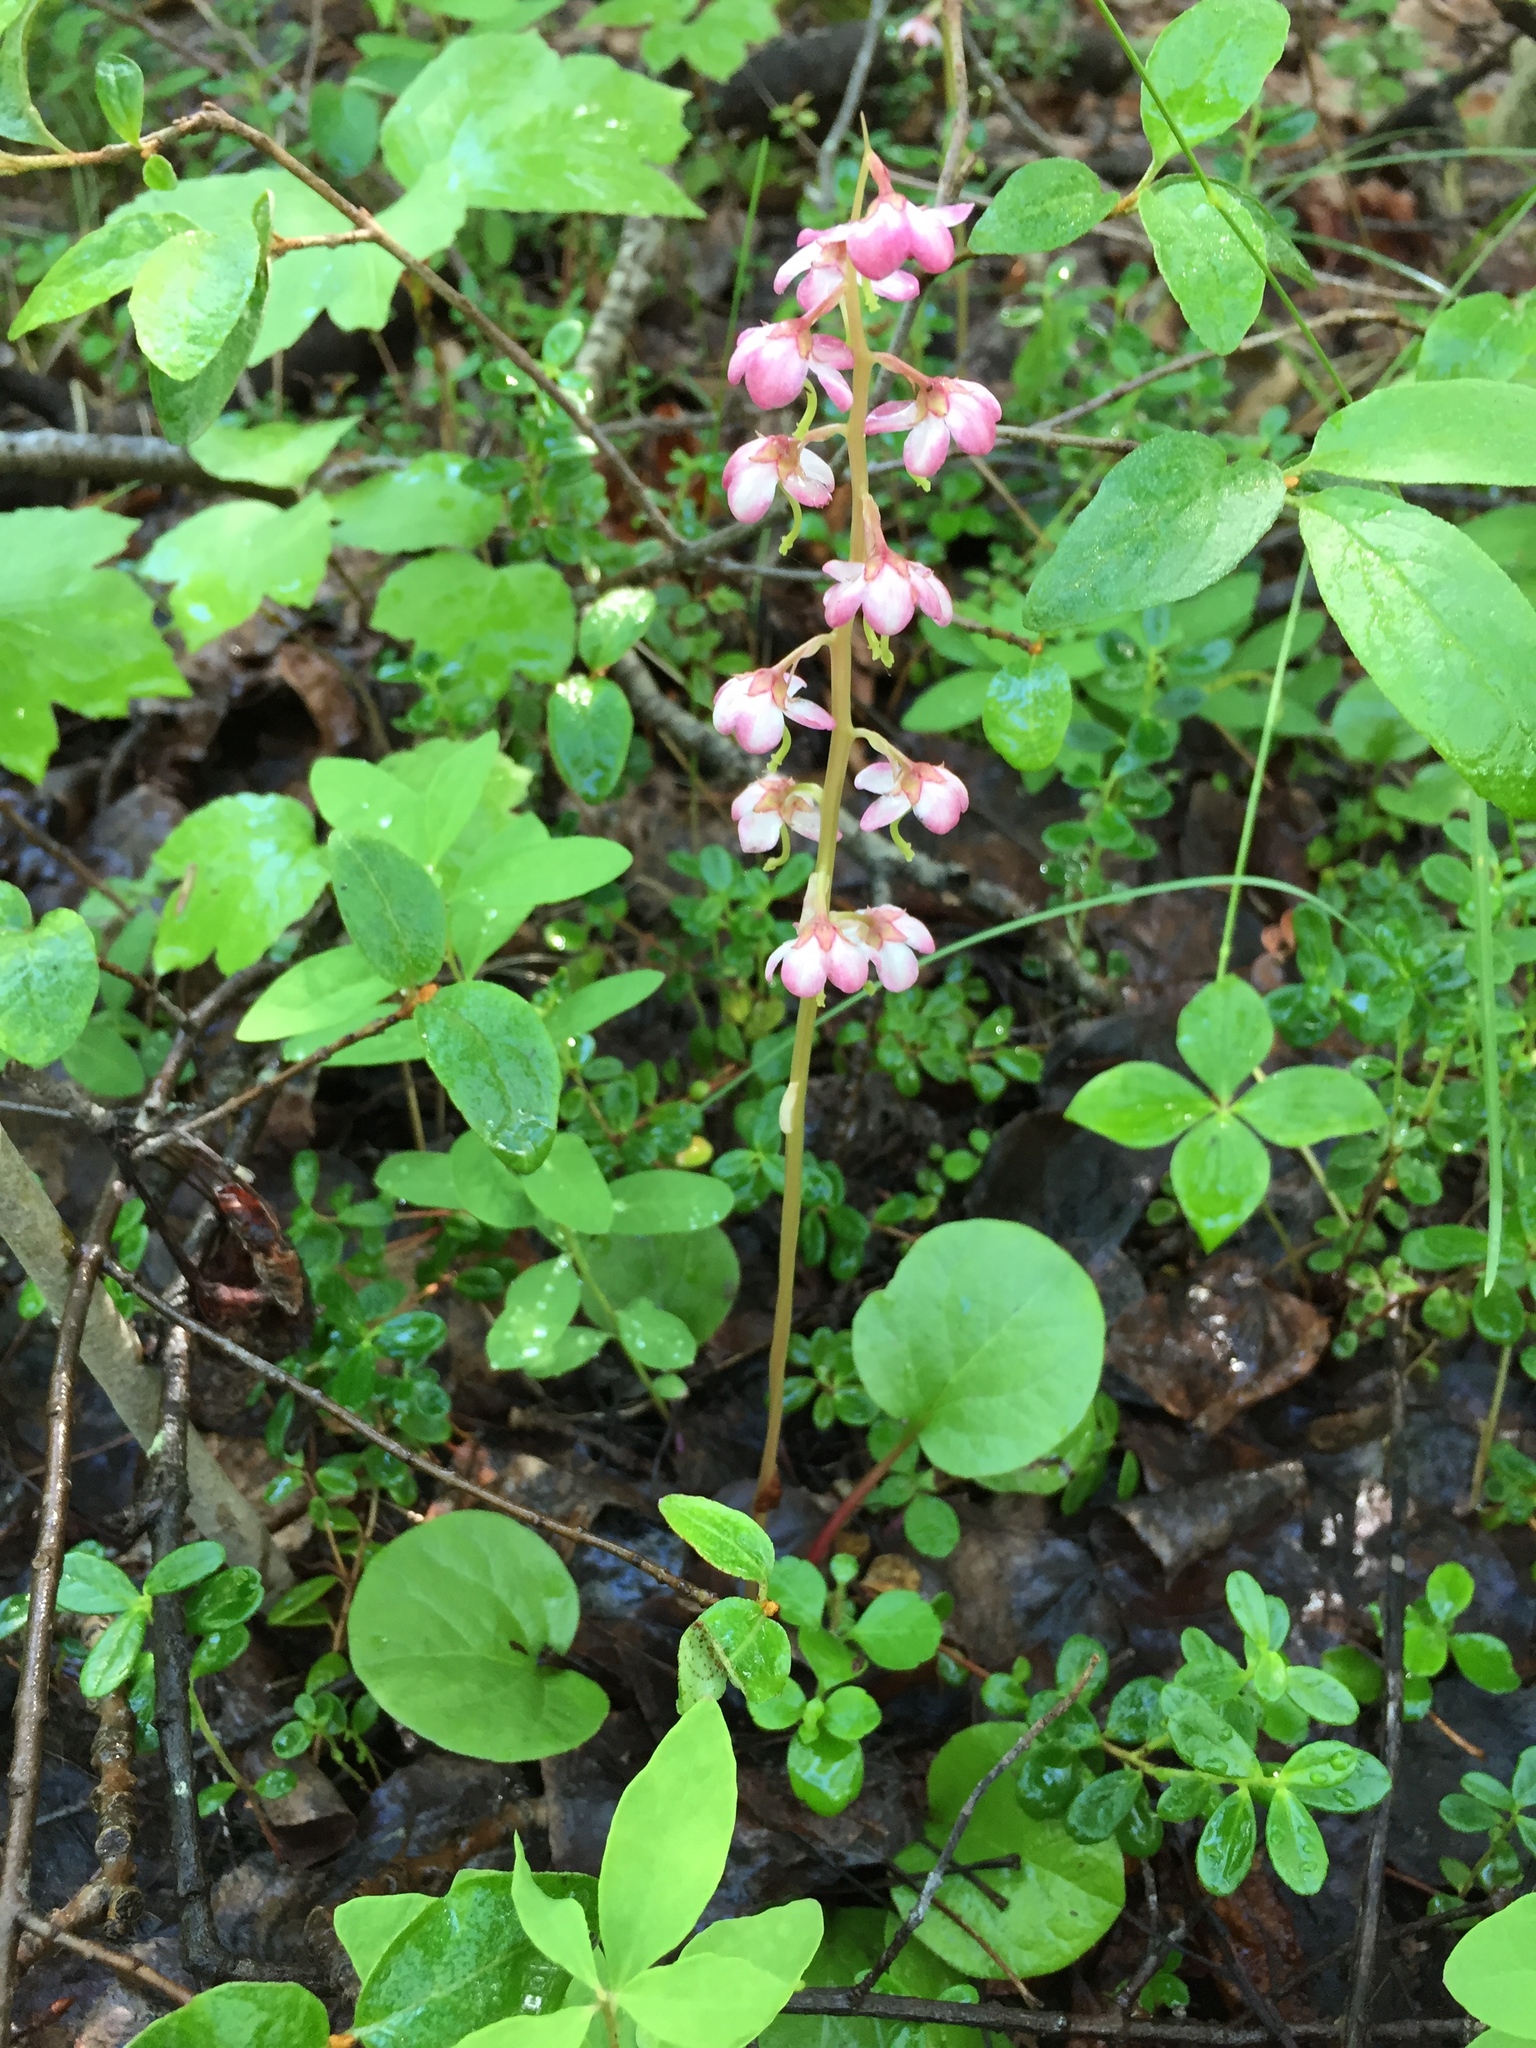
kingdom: Plantae
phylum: Tracheophyta
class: Magnoliopsida
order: Ericales
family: Ericaceae
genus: Pyrola
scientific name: Pyrola asarifolia
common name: Bog wintergreen
